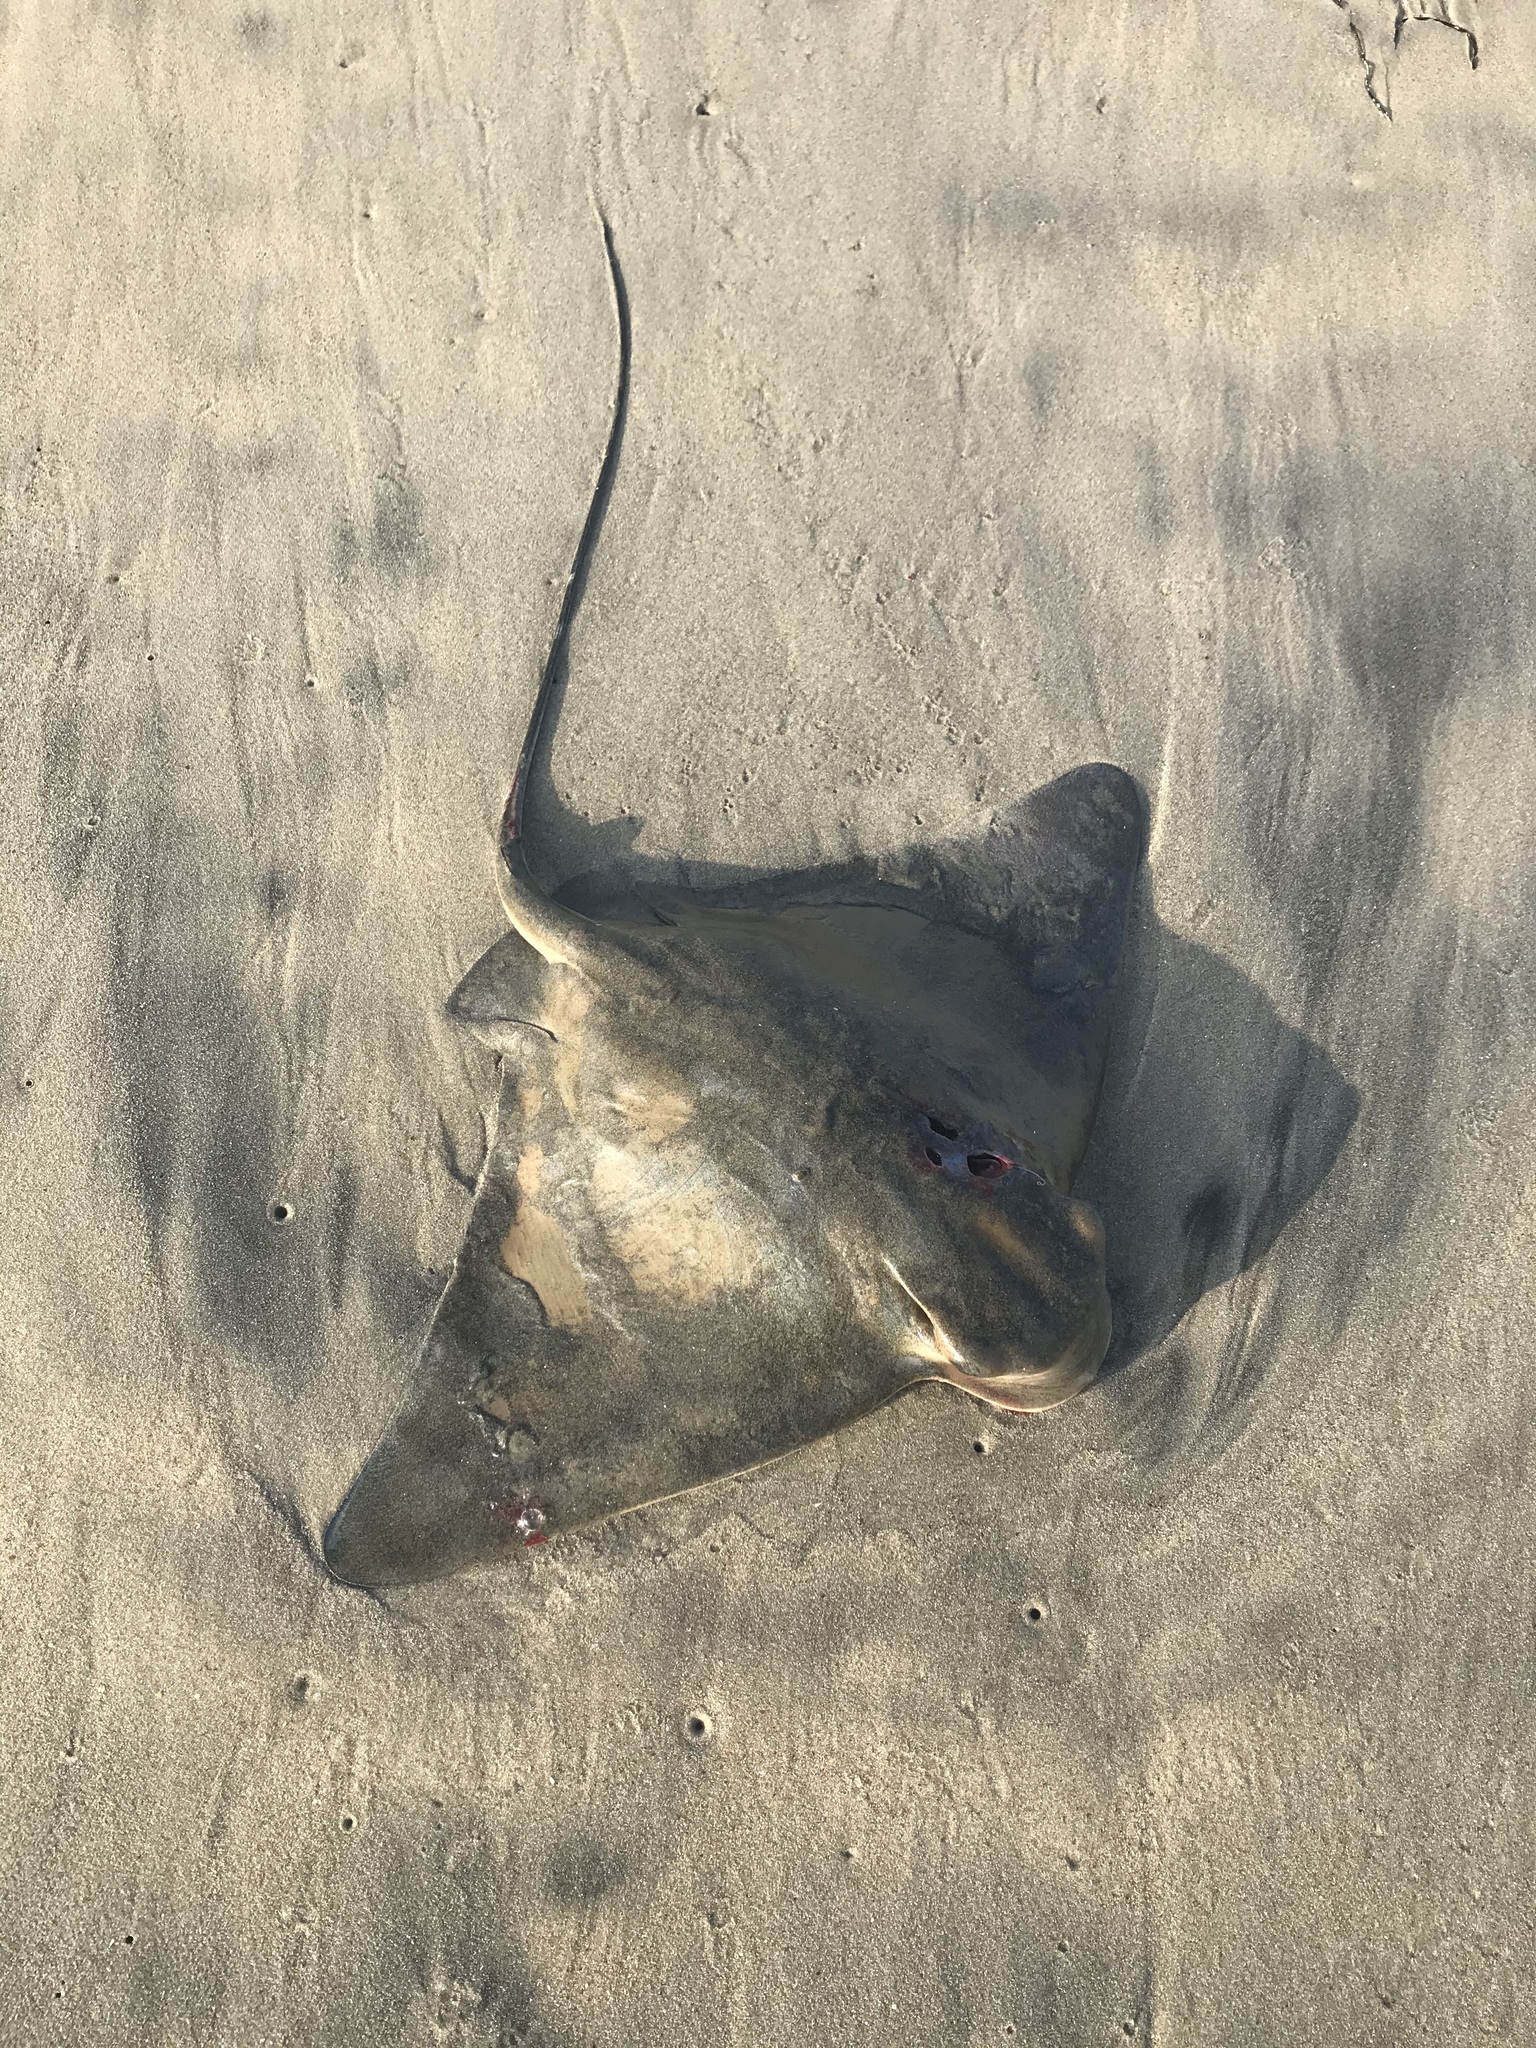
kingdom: Animalia
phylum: Chordata
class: Elasmobranchii
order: Myliobatiformes
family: Myliobatidae
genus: Myliobatis
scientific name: Myliobatis californica
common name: Bat ray
